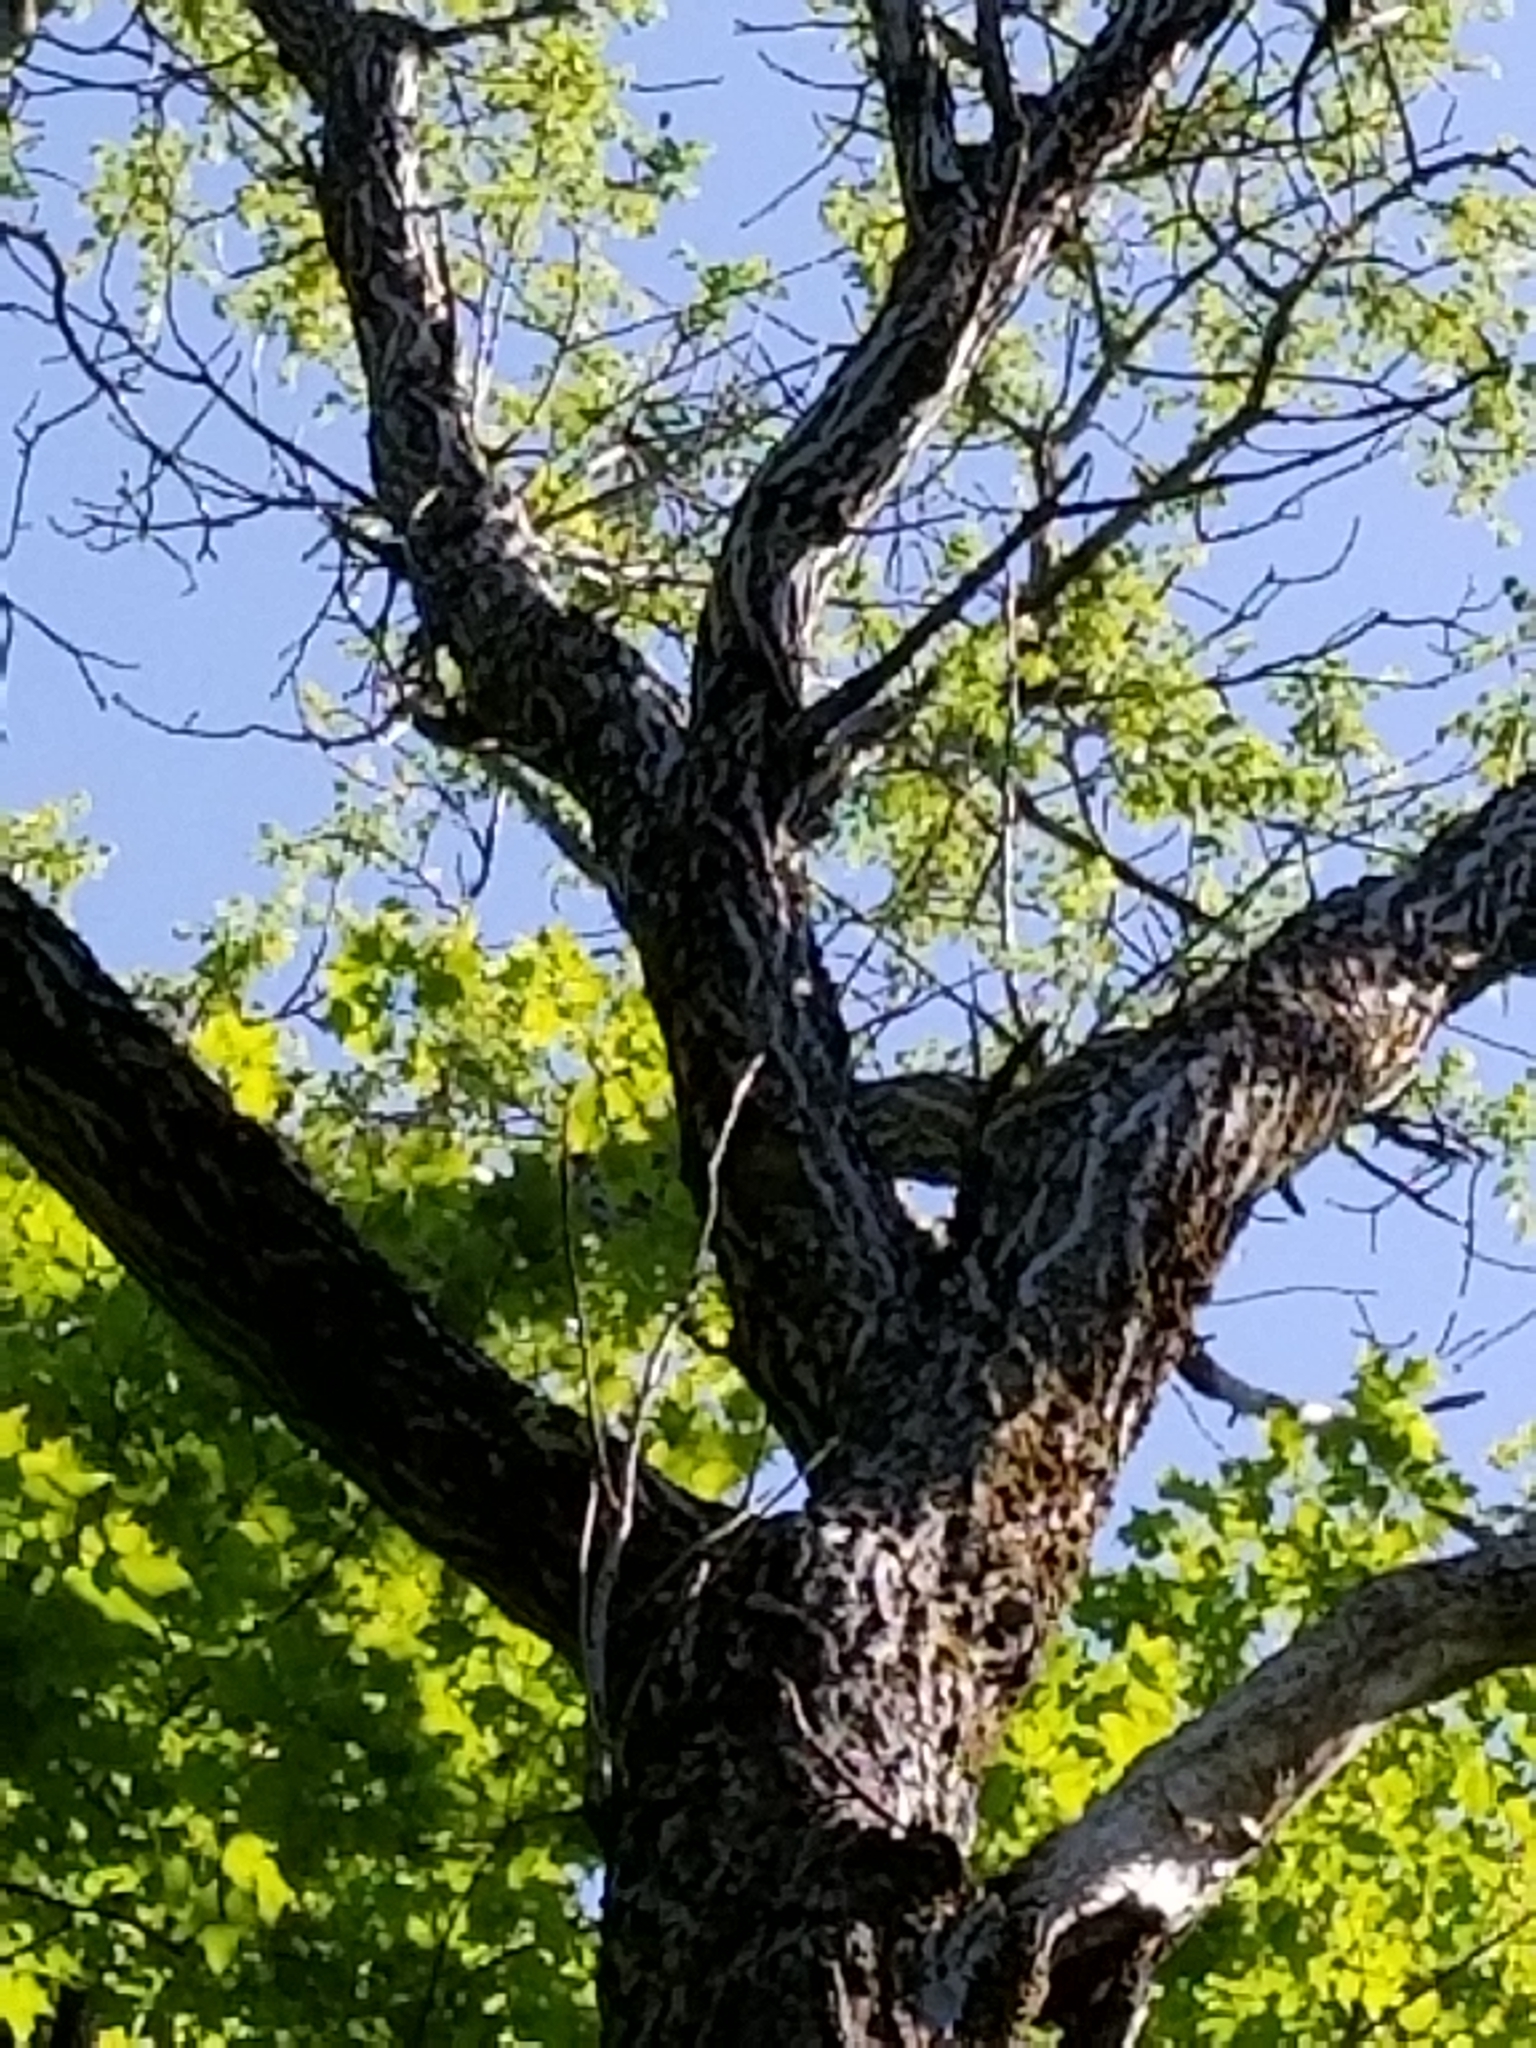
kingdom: Plantae
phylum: Tracheophyta
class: Magnoliopsida
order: Fagales
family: Juglandaceae
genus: Juglans
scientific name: Juglans cinerea
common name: Butternut
